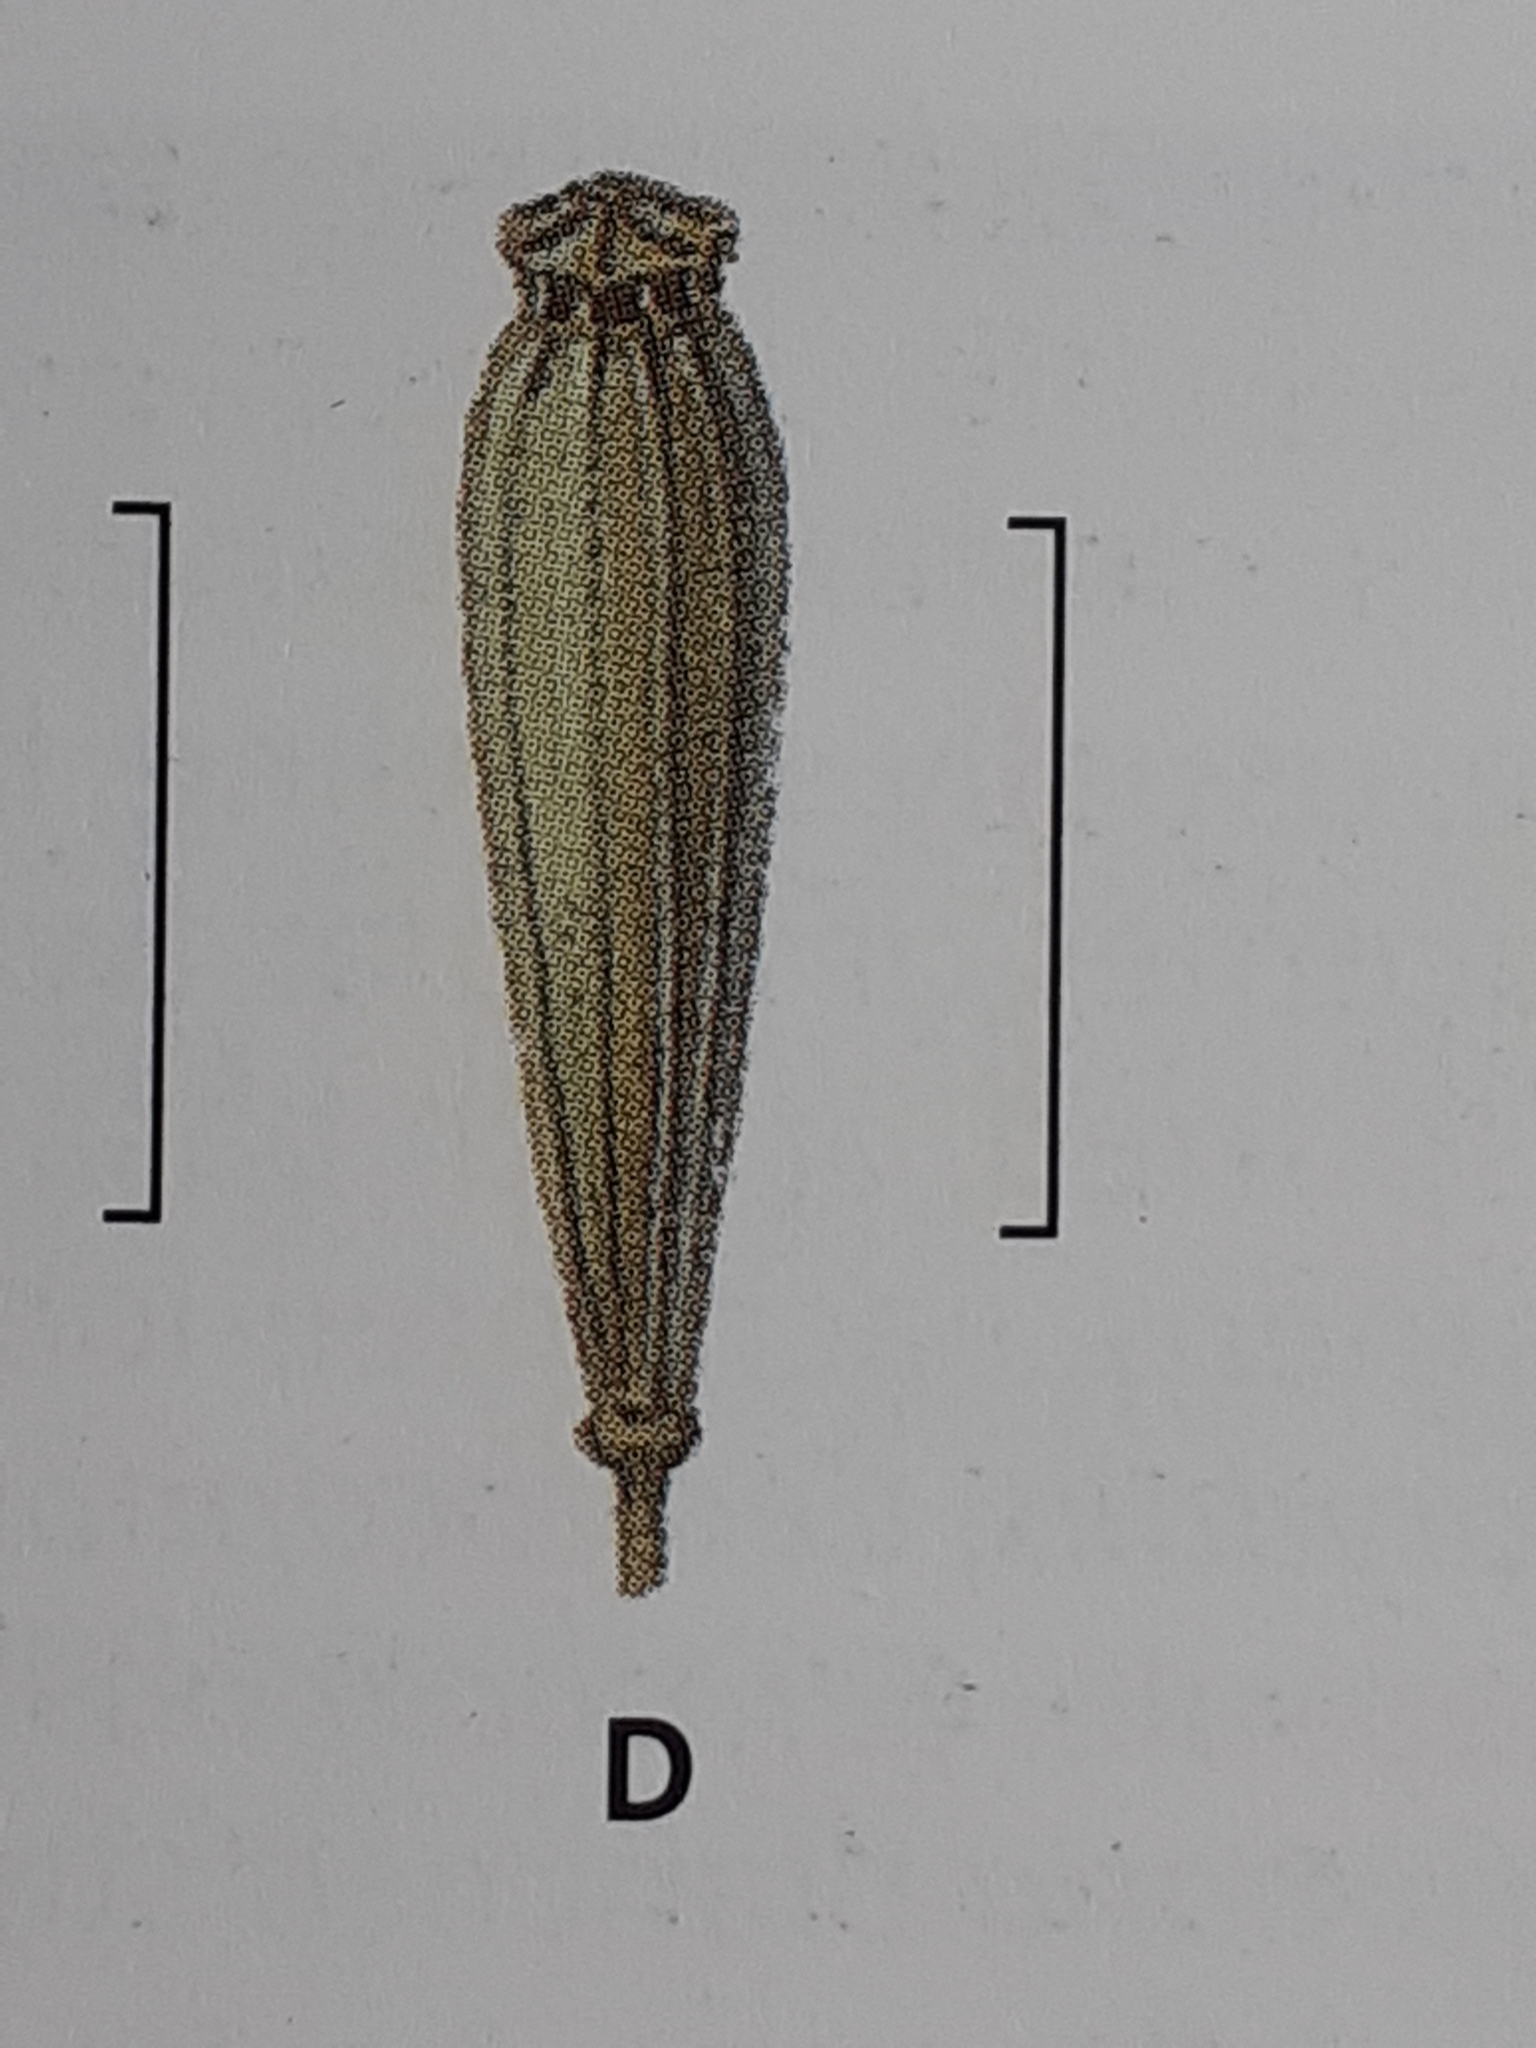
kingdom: Plantae
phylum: Tracheophyta
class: Magnoliopsida
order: Ranunculales
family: Papaveraceae
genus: Papaver
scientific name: Papaver cambricum
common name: Poppy
